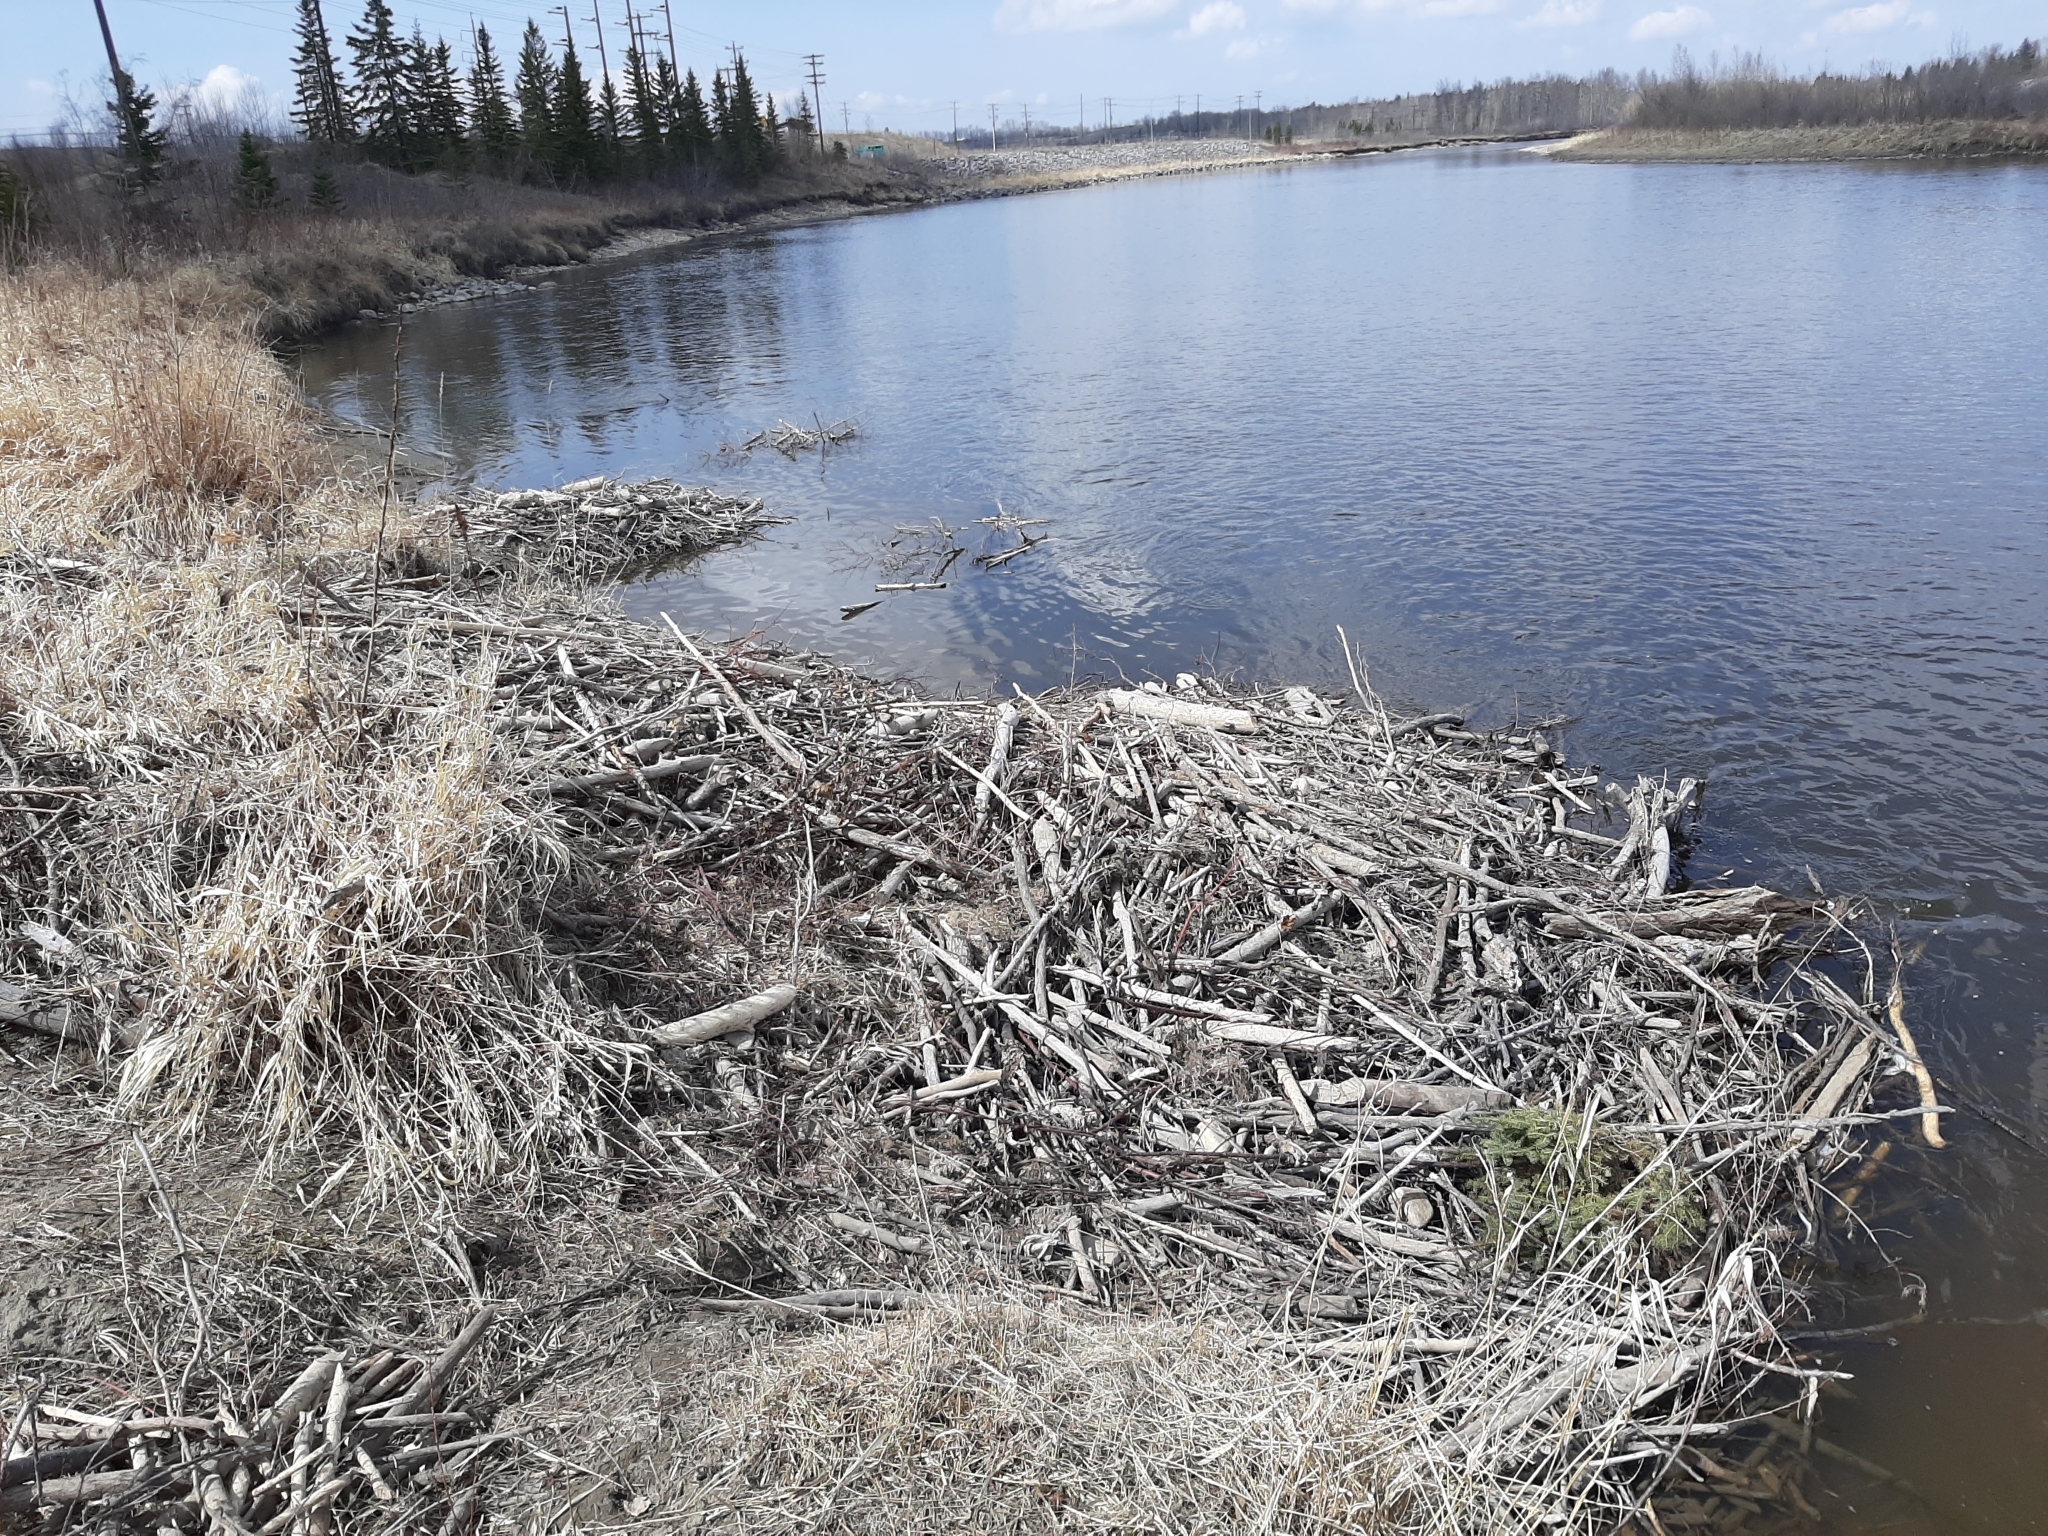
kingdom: Animalia
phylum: Chordata
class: Mammalia
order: Rodentia
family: Castoridae
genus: Castor
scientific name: Castor canadensis
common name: American beaver
